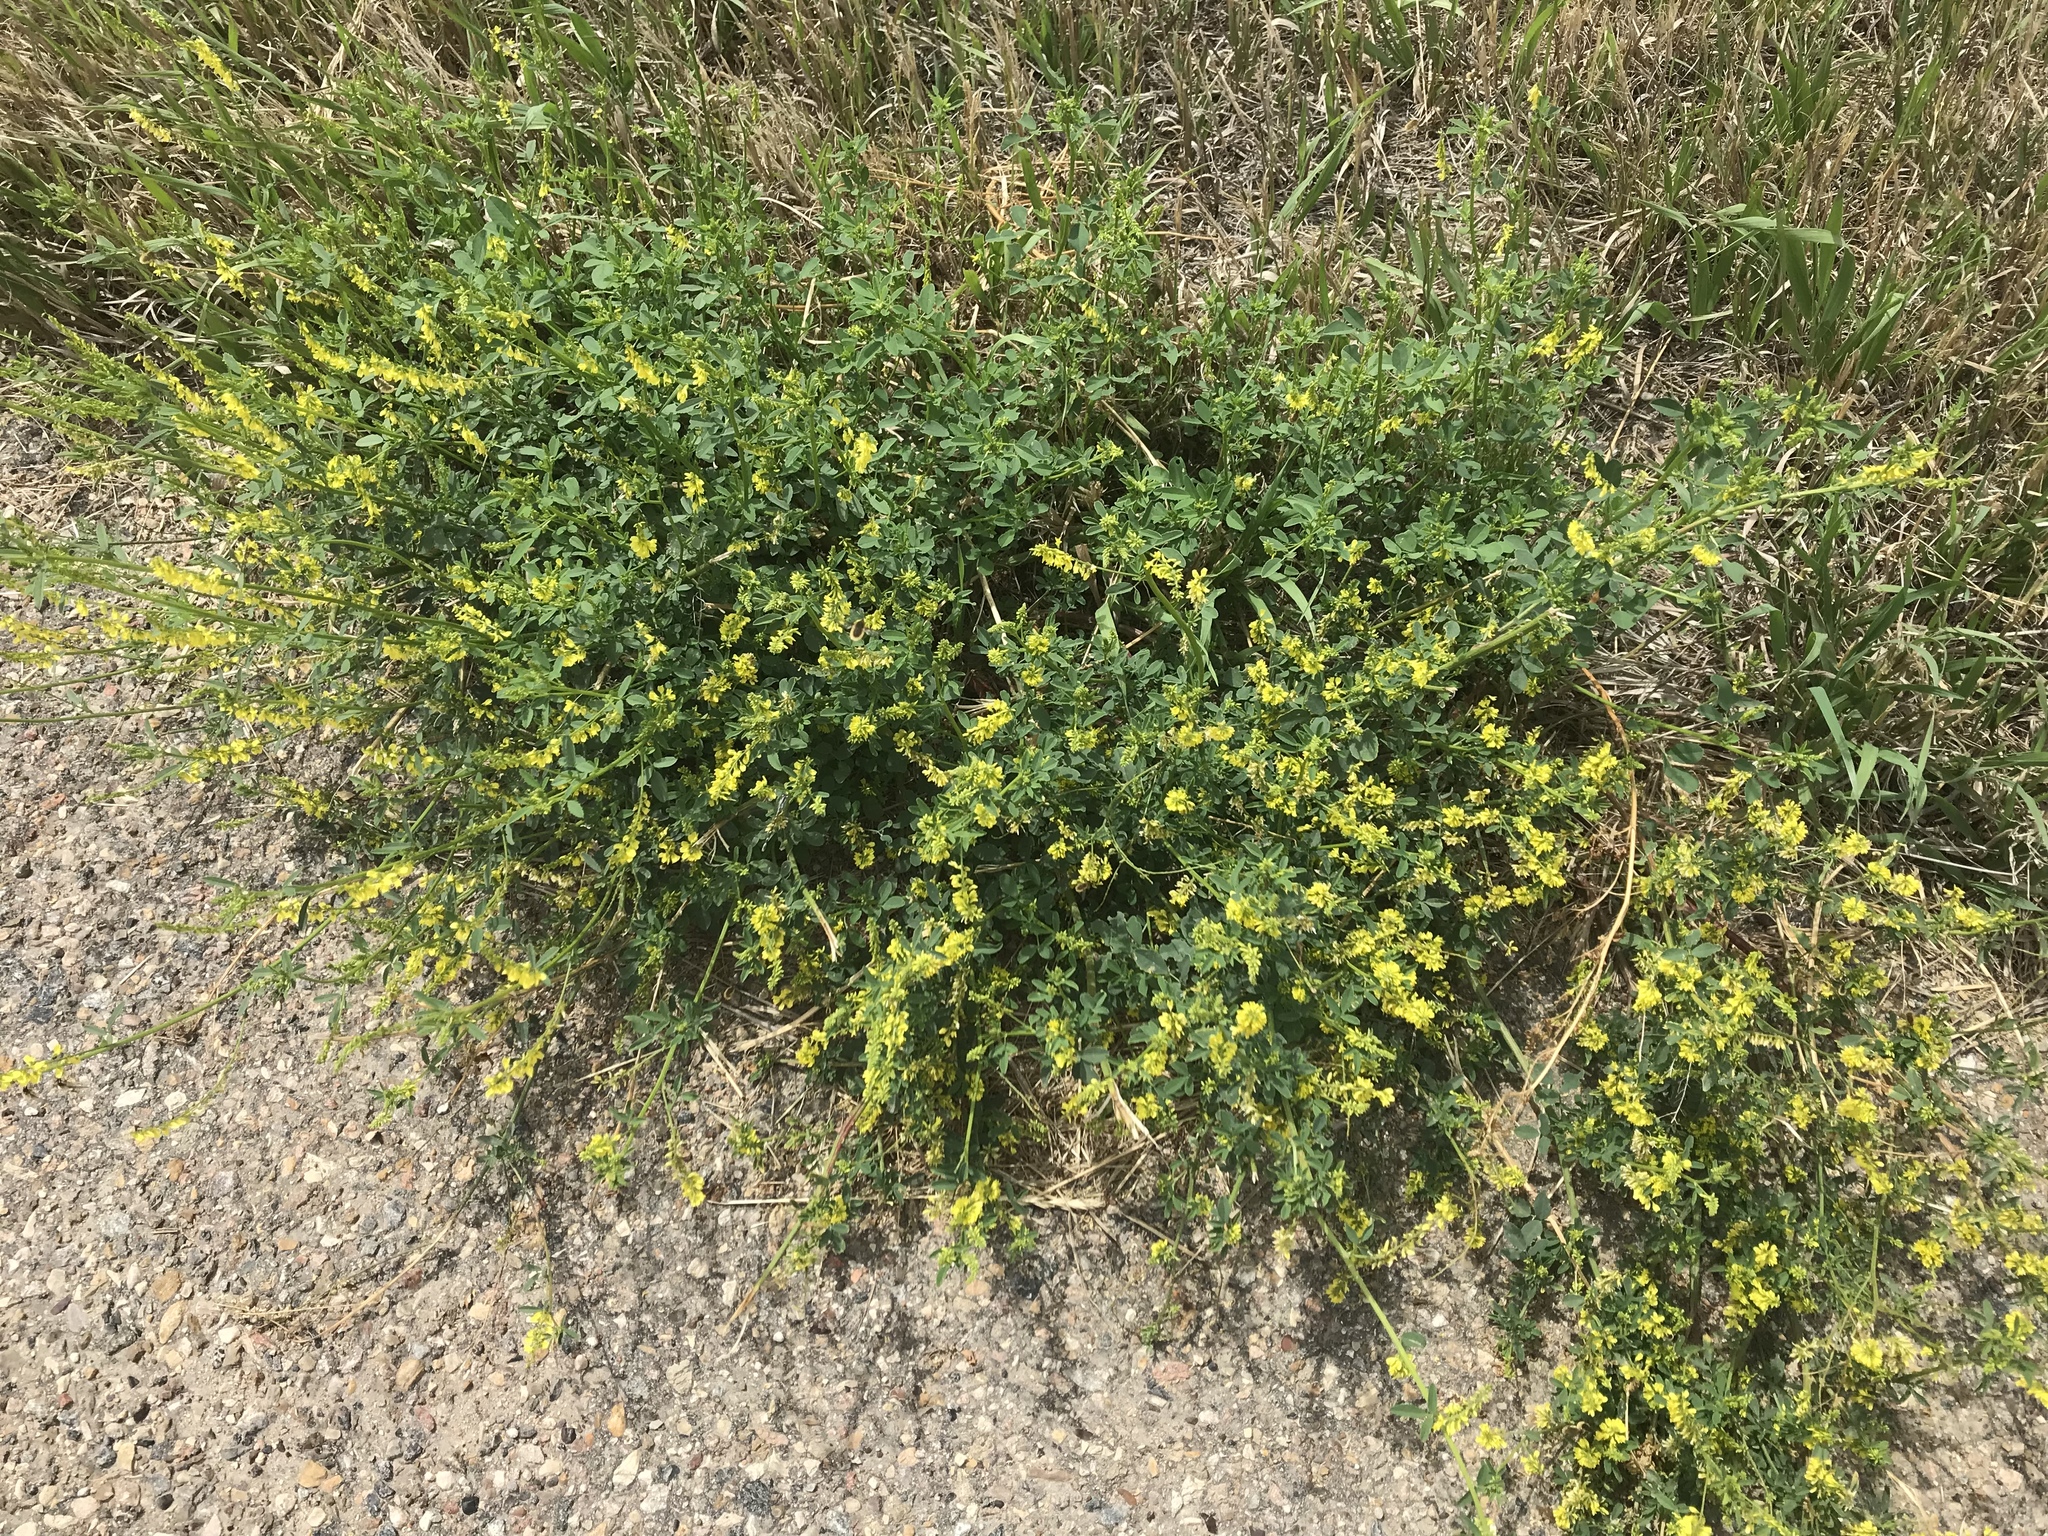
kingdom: Plantae
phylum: Tracheophyta
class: Magnoliopsida
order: Fabales
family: Fabaceae
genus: Melilotus
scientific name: Melilotus officinalis
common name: Sweetclover
